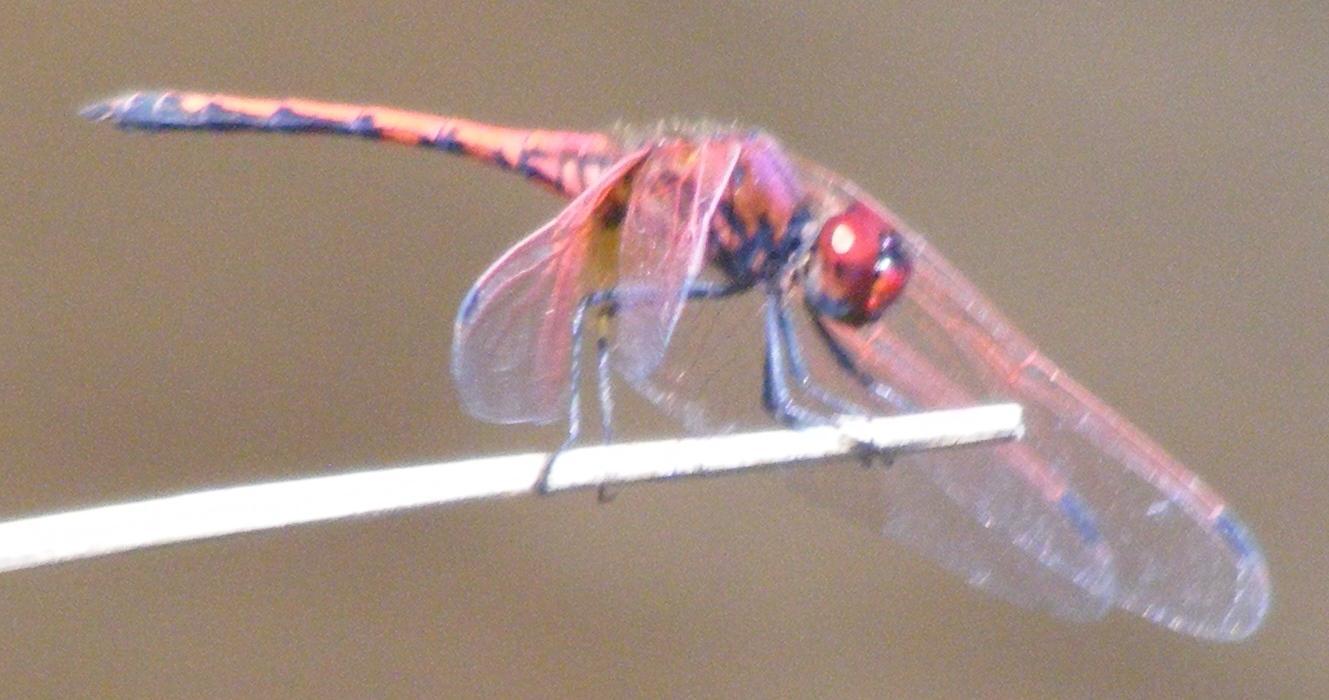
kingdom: Animalia
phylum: Arthropoda
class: Insecta
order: Odonata
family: Libellulidae
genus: Trithemis
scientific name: Trithemis arteriosa
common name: Red-veined dropwing
